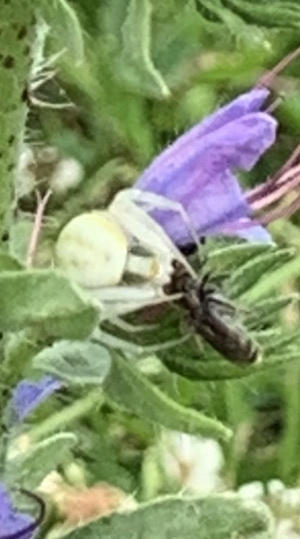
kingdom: Animalia
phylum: Arthropoda
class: Arachnida
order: Araneae
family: Thomisidae
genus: Misumena
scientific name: Misumena vatia
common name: Goldenrod crab spider
